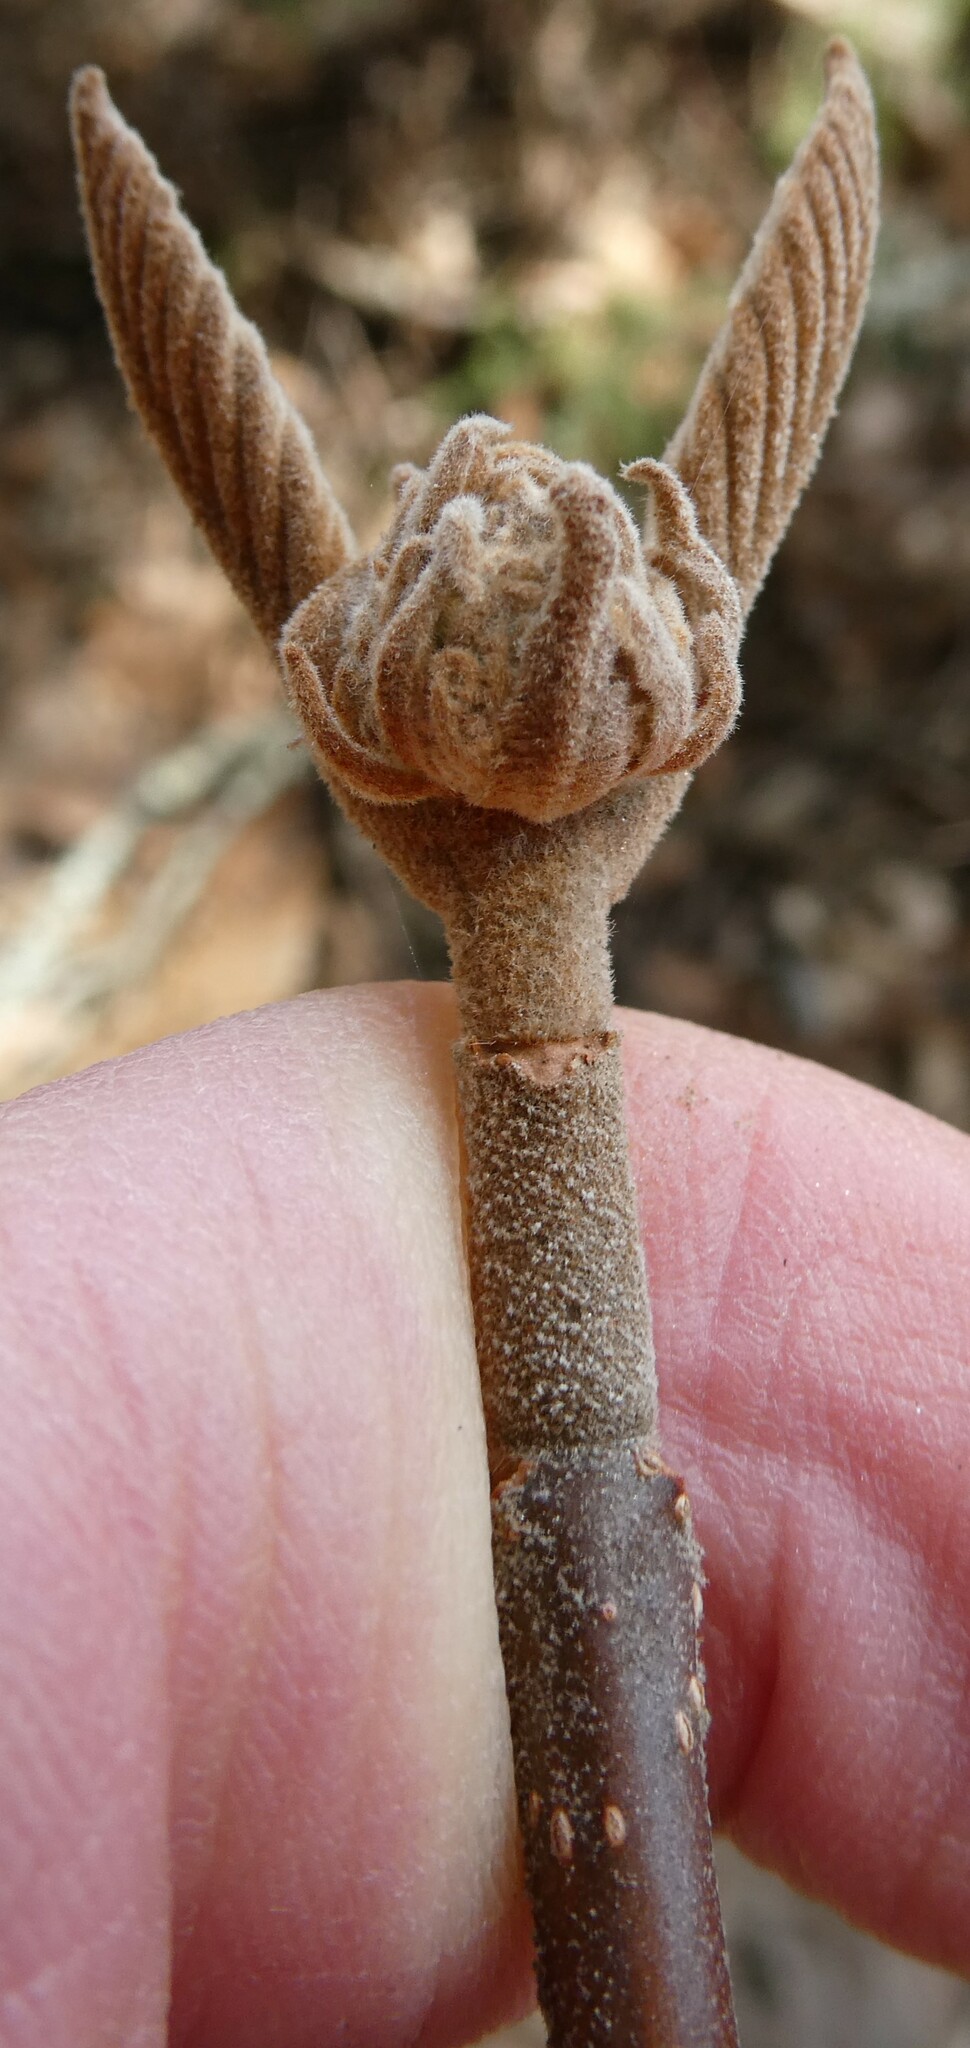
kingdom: Plantae
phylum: Tracheophyta
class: Magnoliopsida
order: Dipsacales
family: Viburnaceae
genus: Viburnum
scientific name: Viburnum lantanoides
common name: Hobblebush
